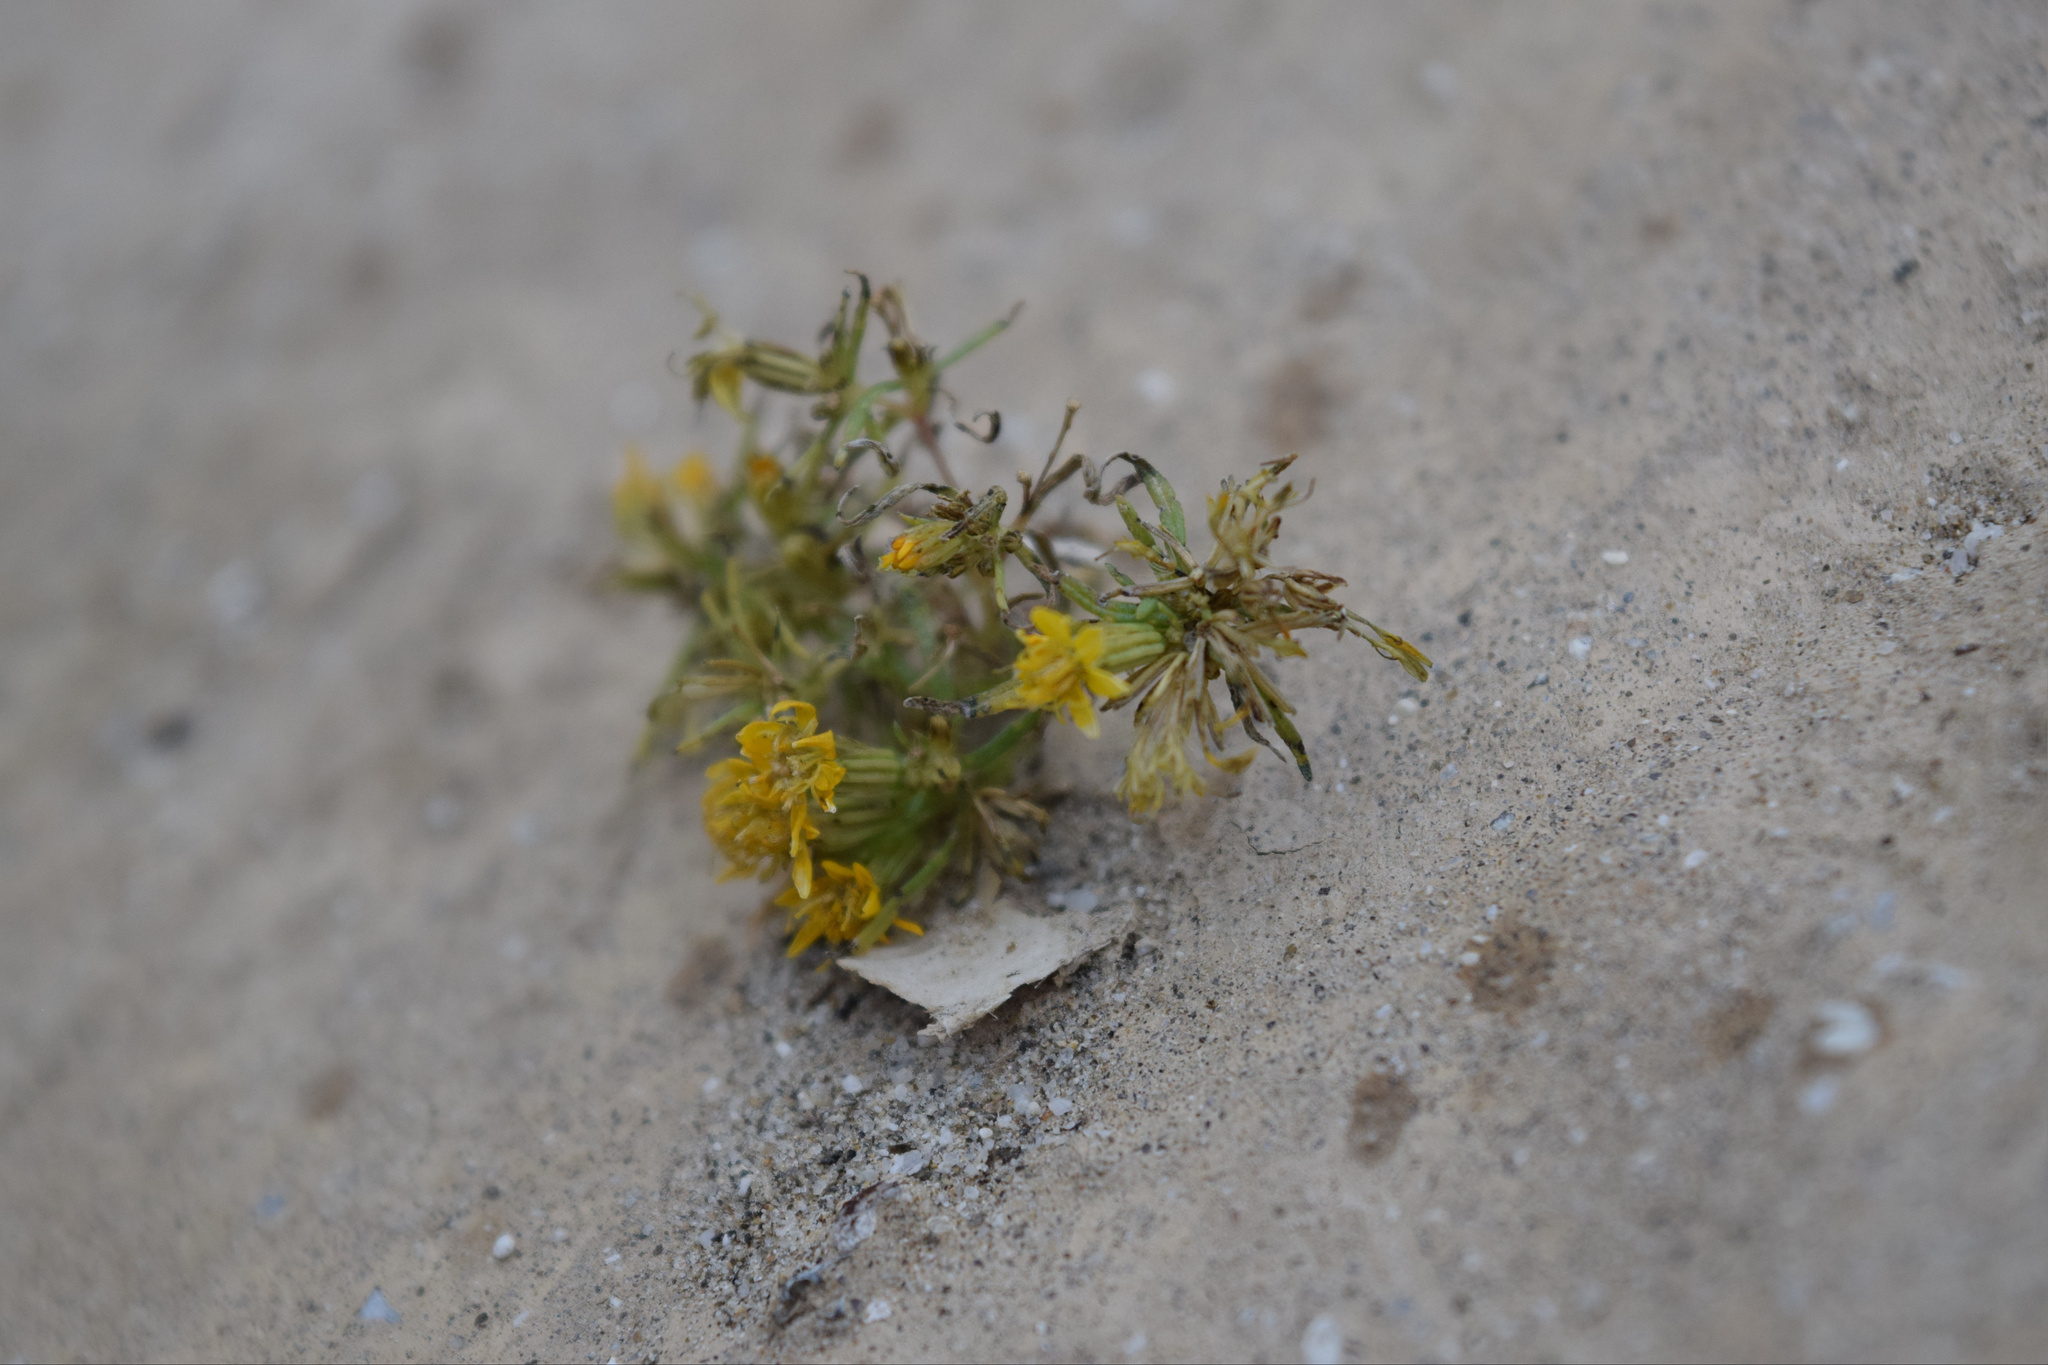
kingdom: Plantae
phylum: Tracheophyta
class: Magnoliopsida
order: Asterales
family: Asteraceae
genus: Pectis
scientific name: Pectis papposa
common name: Many-bristle chinchweed
